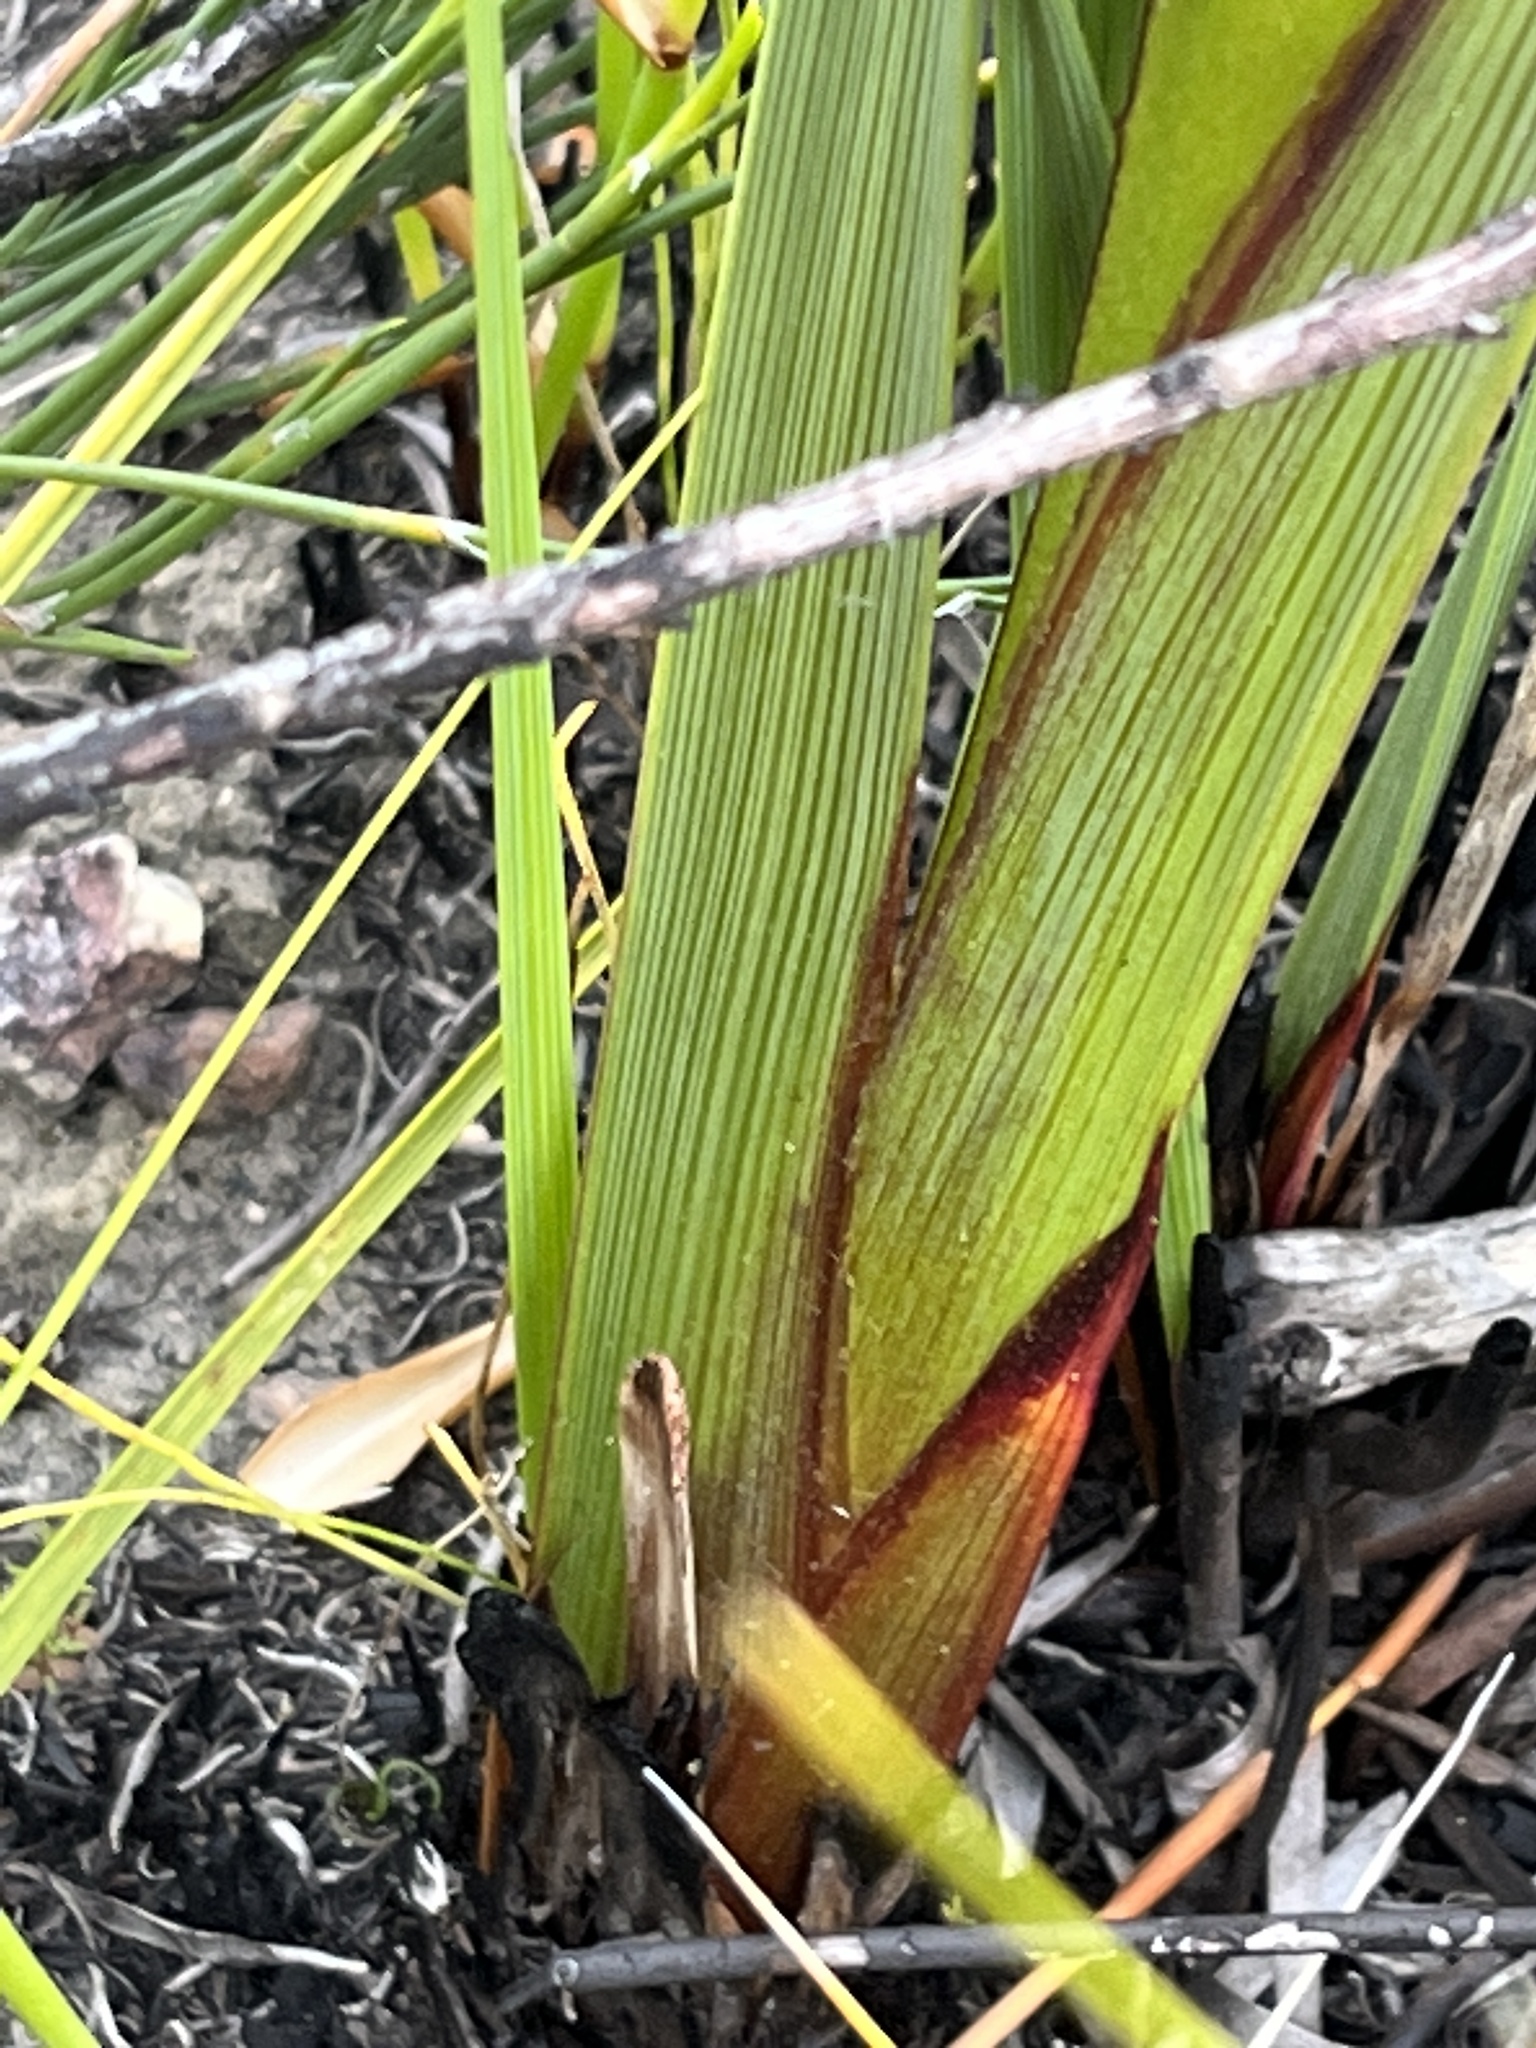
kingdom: Plantae
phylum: Tracheophyta
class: Liliopsida
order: Asparagales
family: Iridaceae
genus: Pillansia
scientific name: Pillansia templemannii
